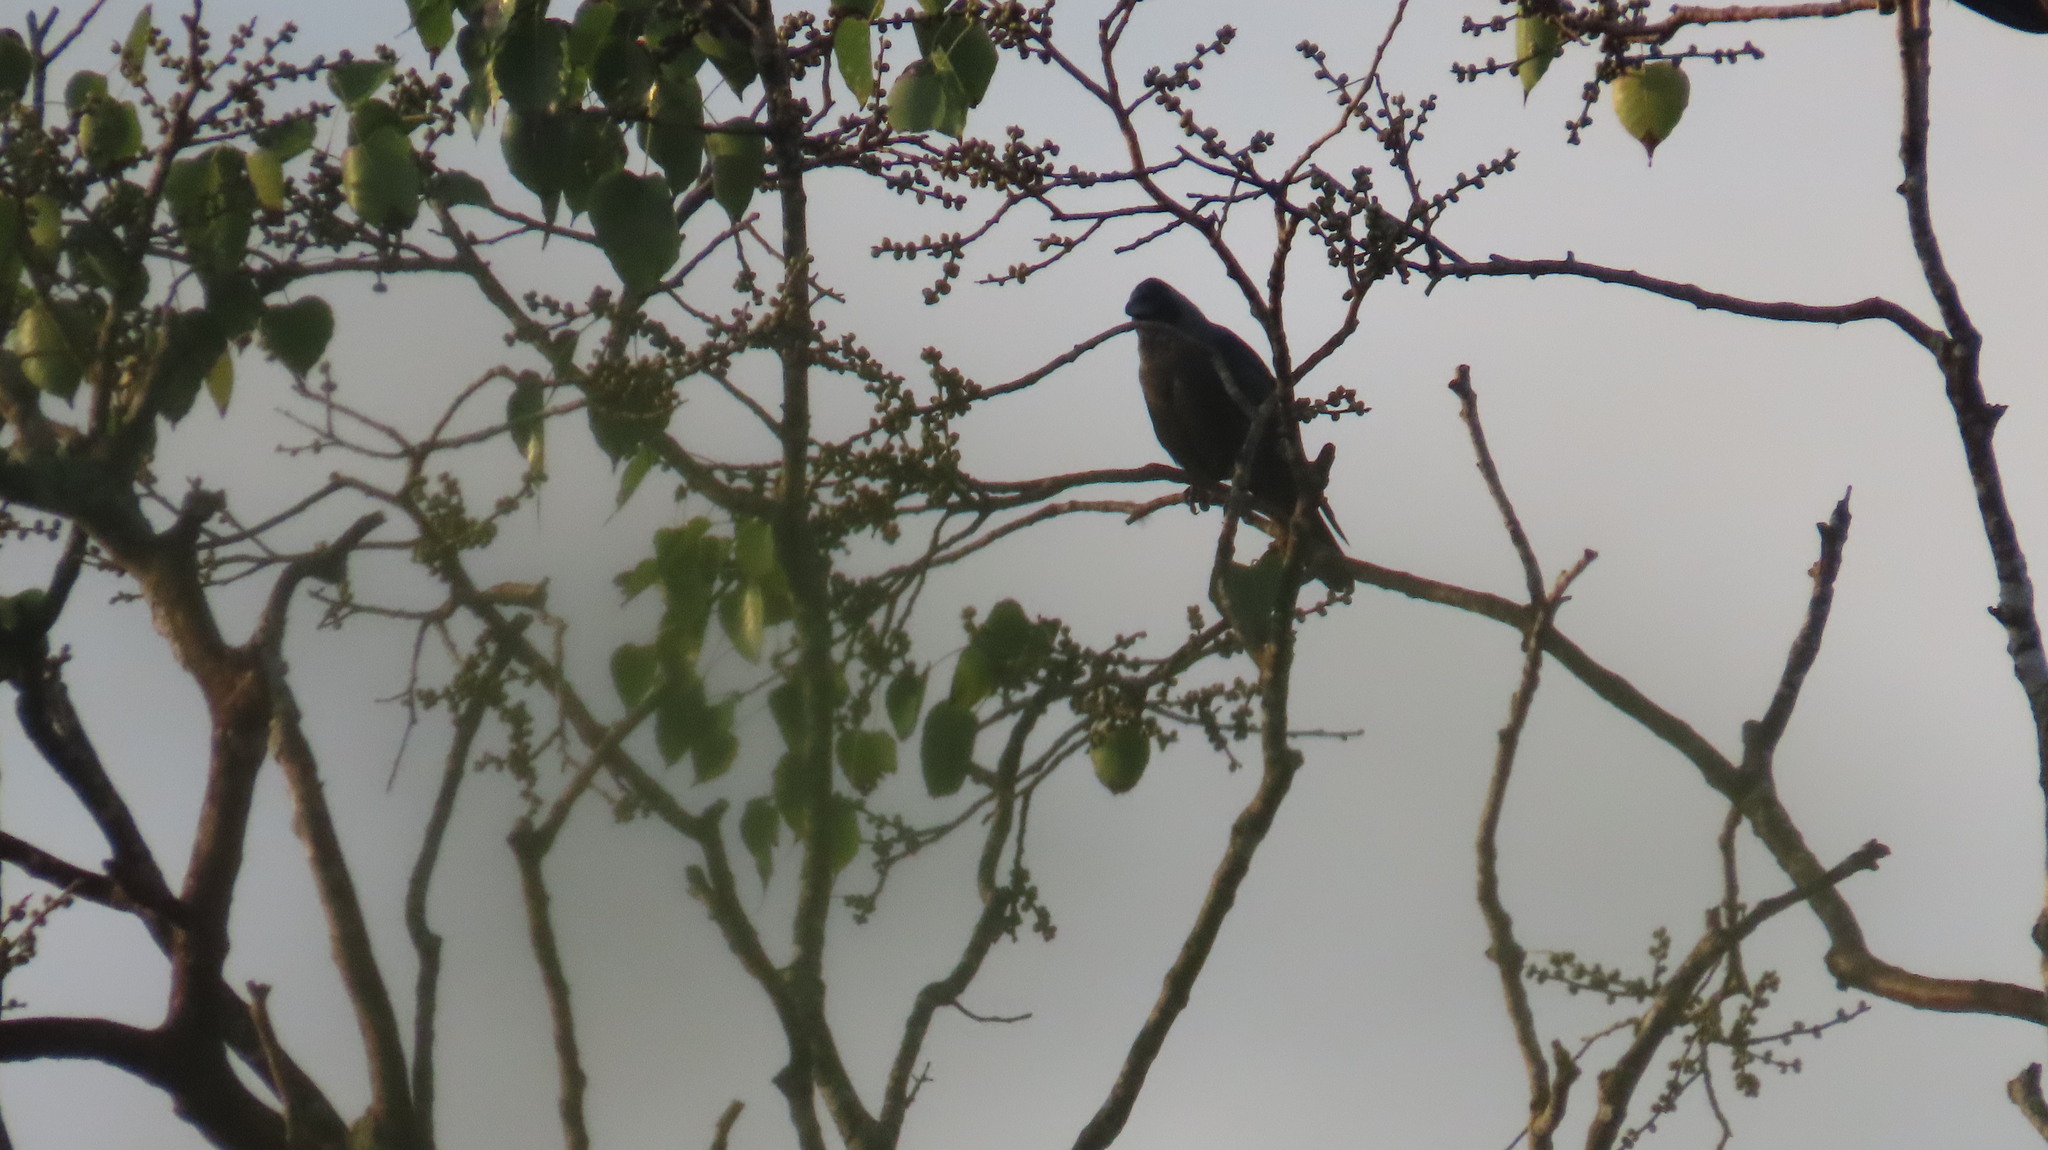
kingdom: Animalia
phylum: Chordata
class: Aves
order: Passeriformes
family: Corvidae
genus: Corvus
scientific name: Corvus splendens
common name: House crow
